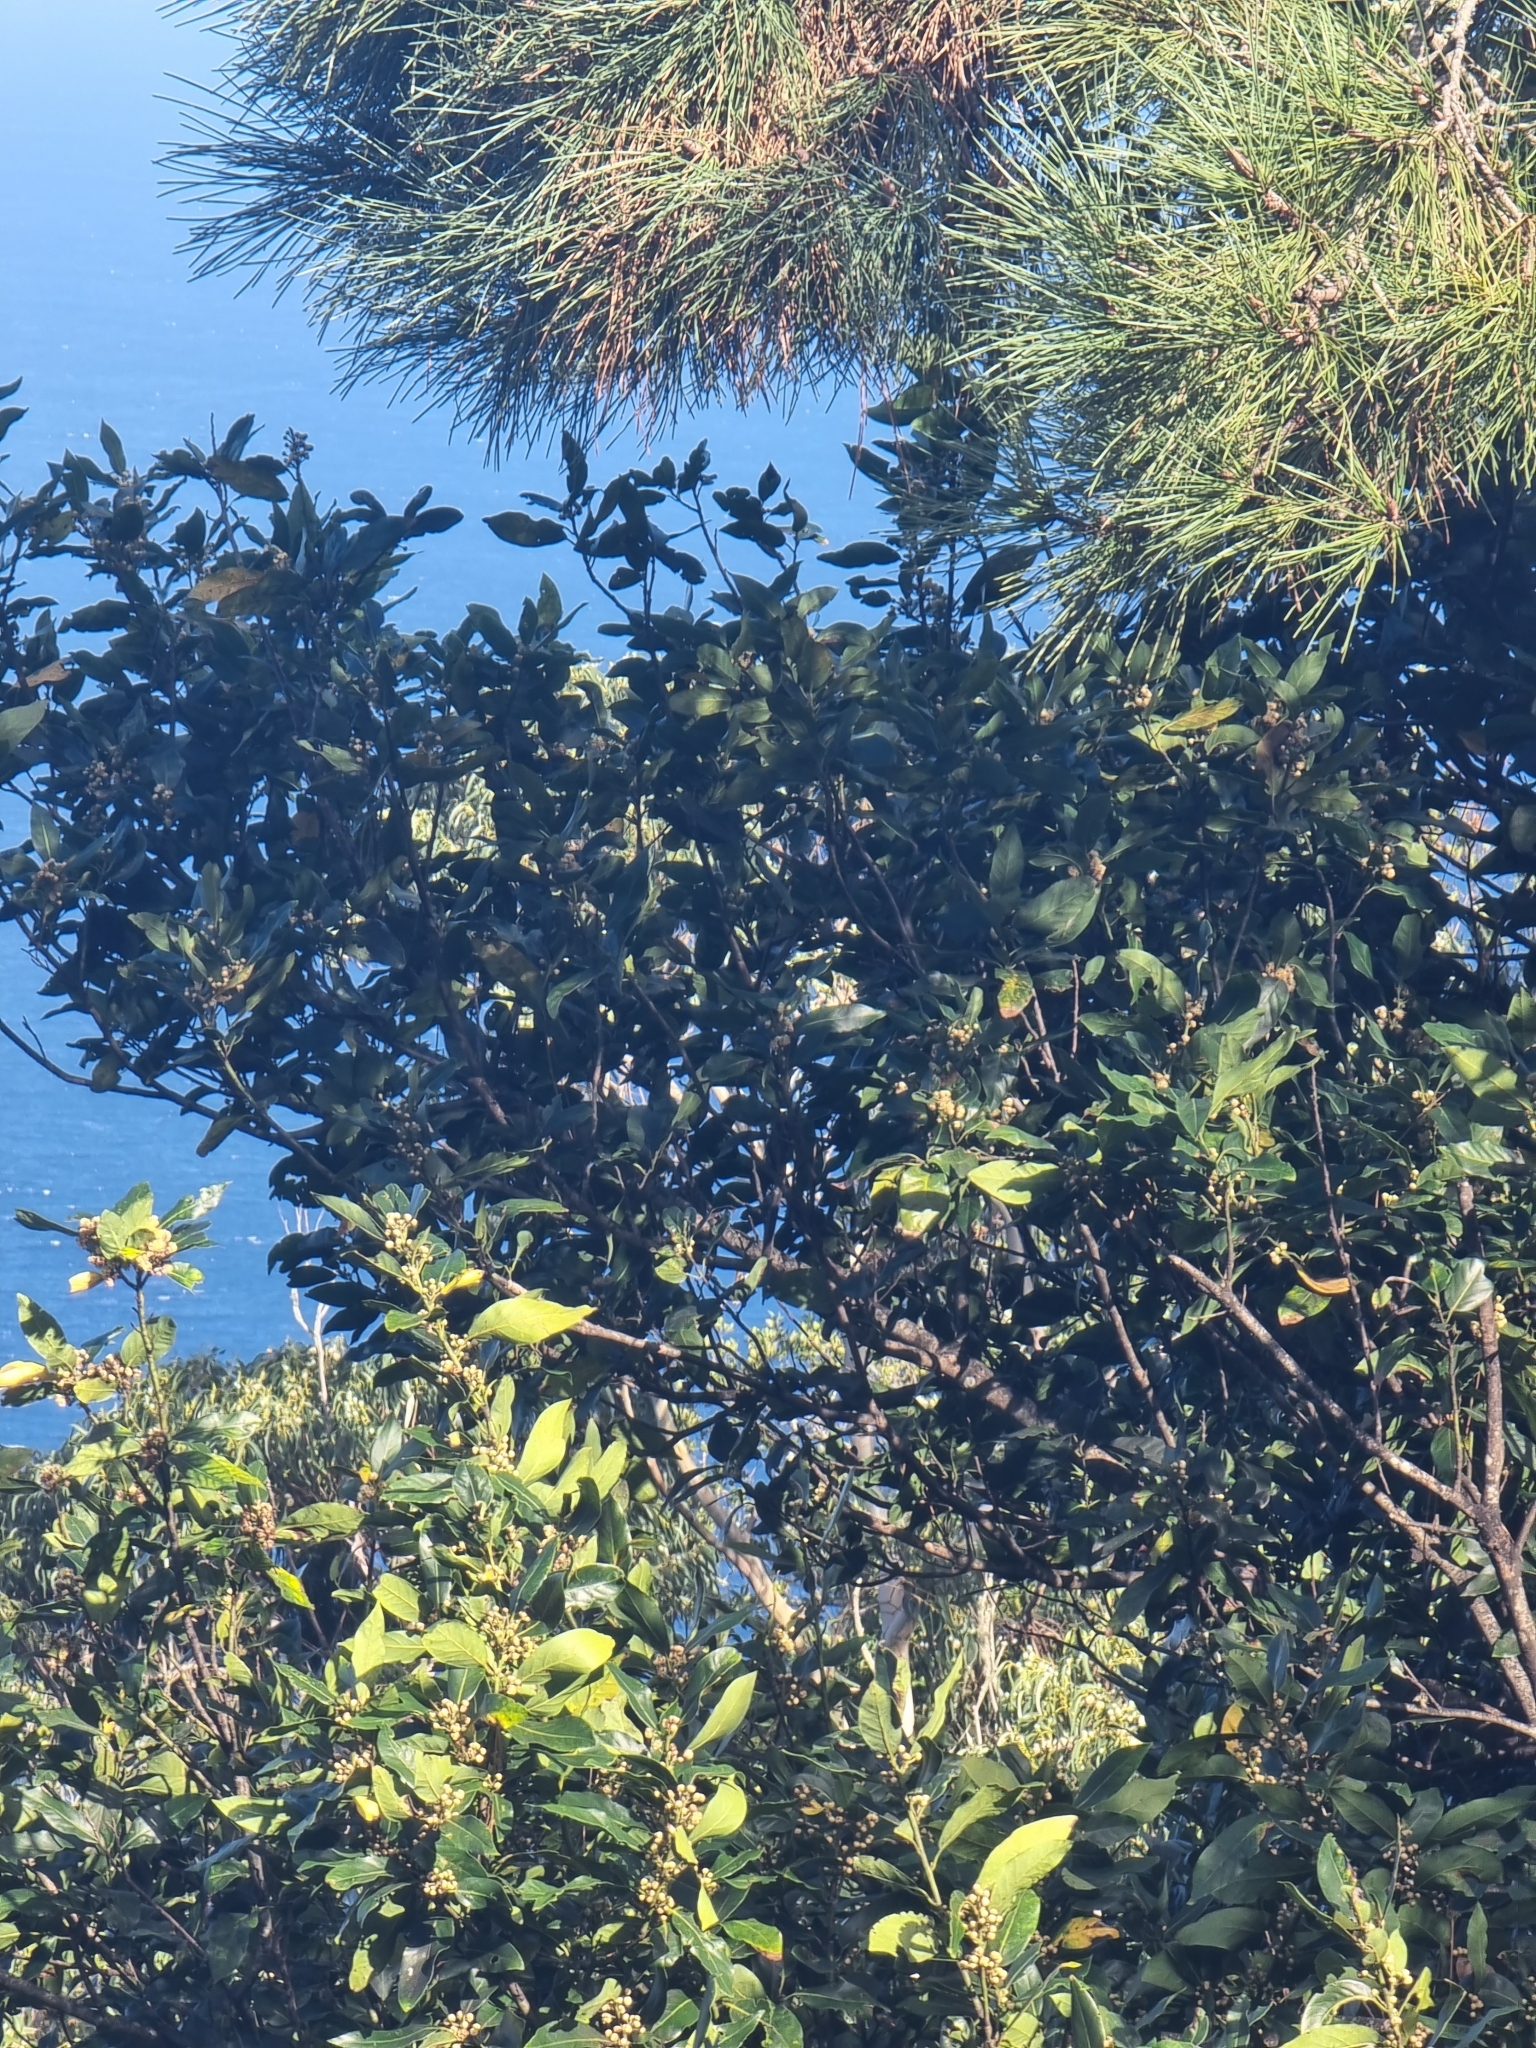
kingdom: Plantae
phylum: Tracheophyta
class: Magnoliopsida
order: Laurales
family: Lauraceae
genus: Laurus
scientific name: Laurus novocanariensis
